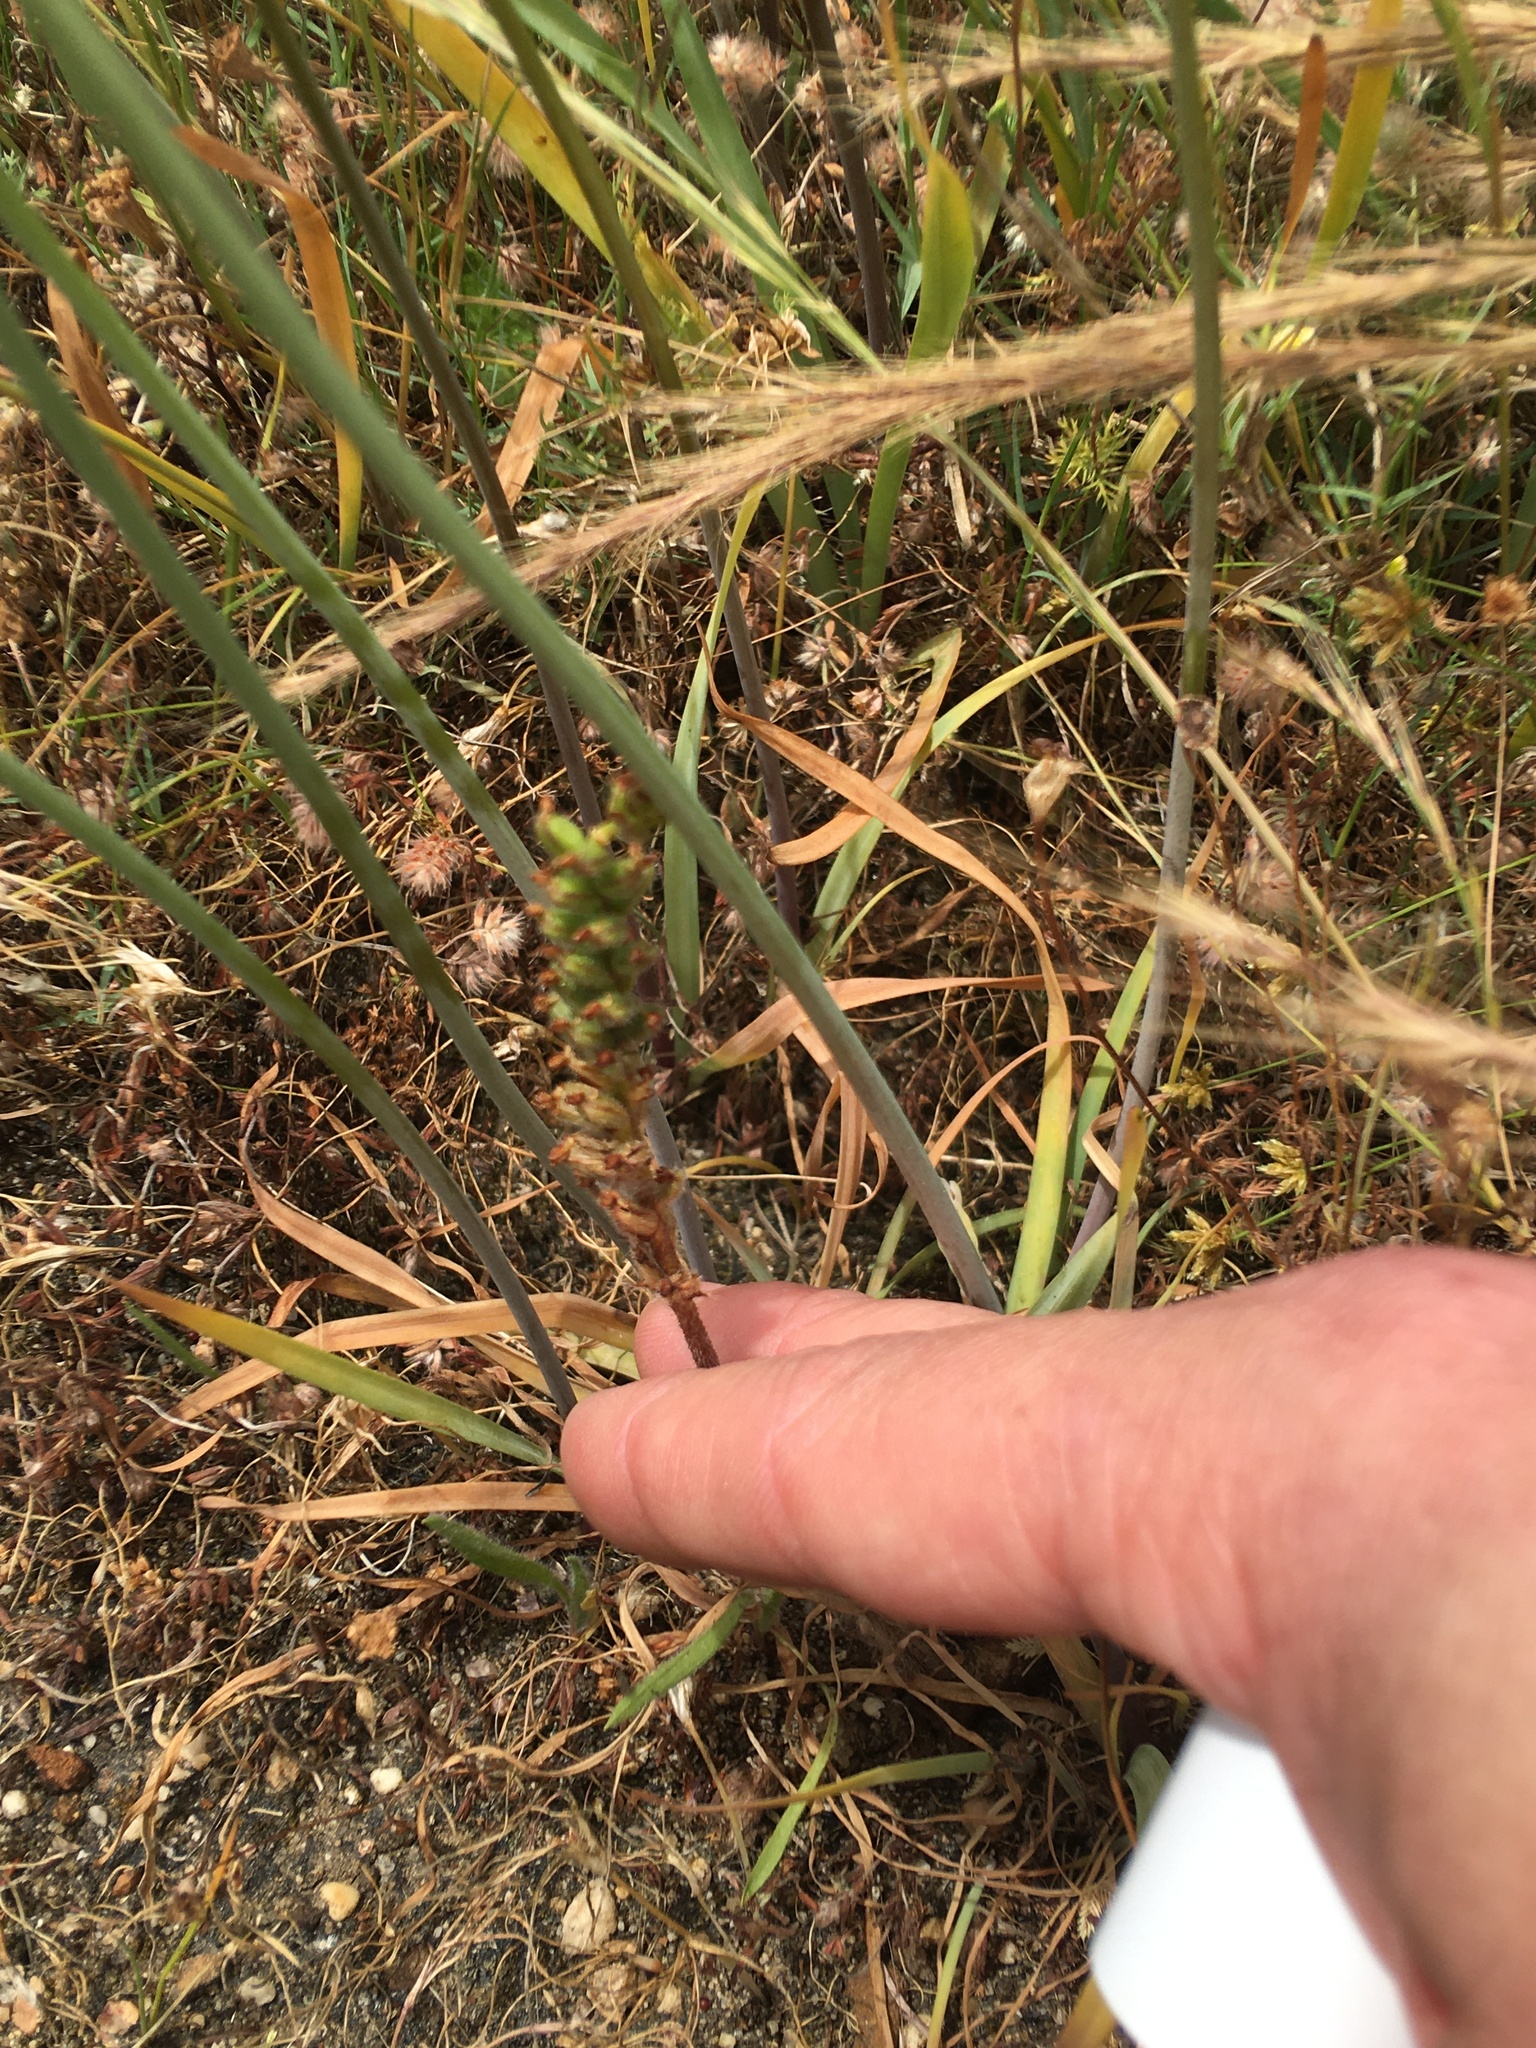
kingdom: Plantae
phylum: Tracheophyta
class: Liliopsida
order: Asparagales
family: Orchidaceae
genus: Holothrix
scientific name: Holothrix villosa
